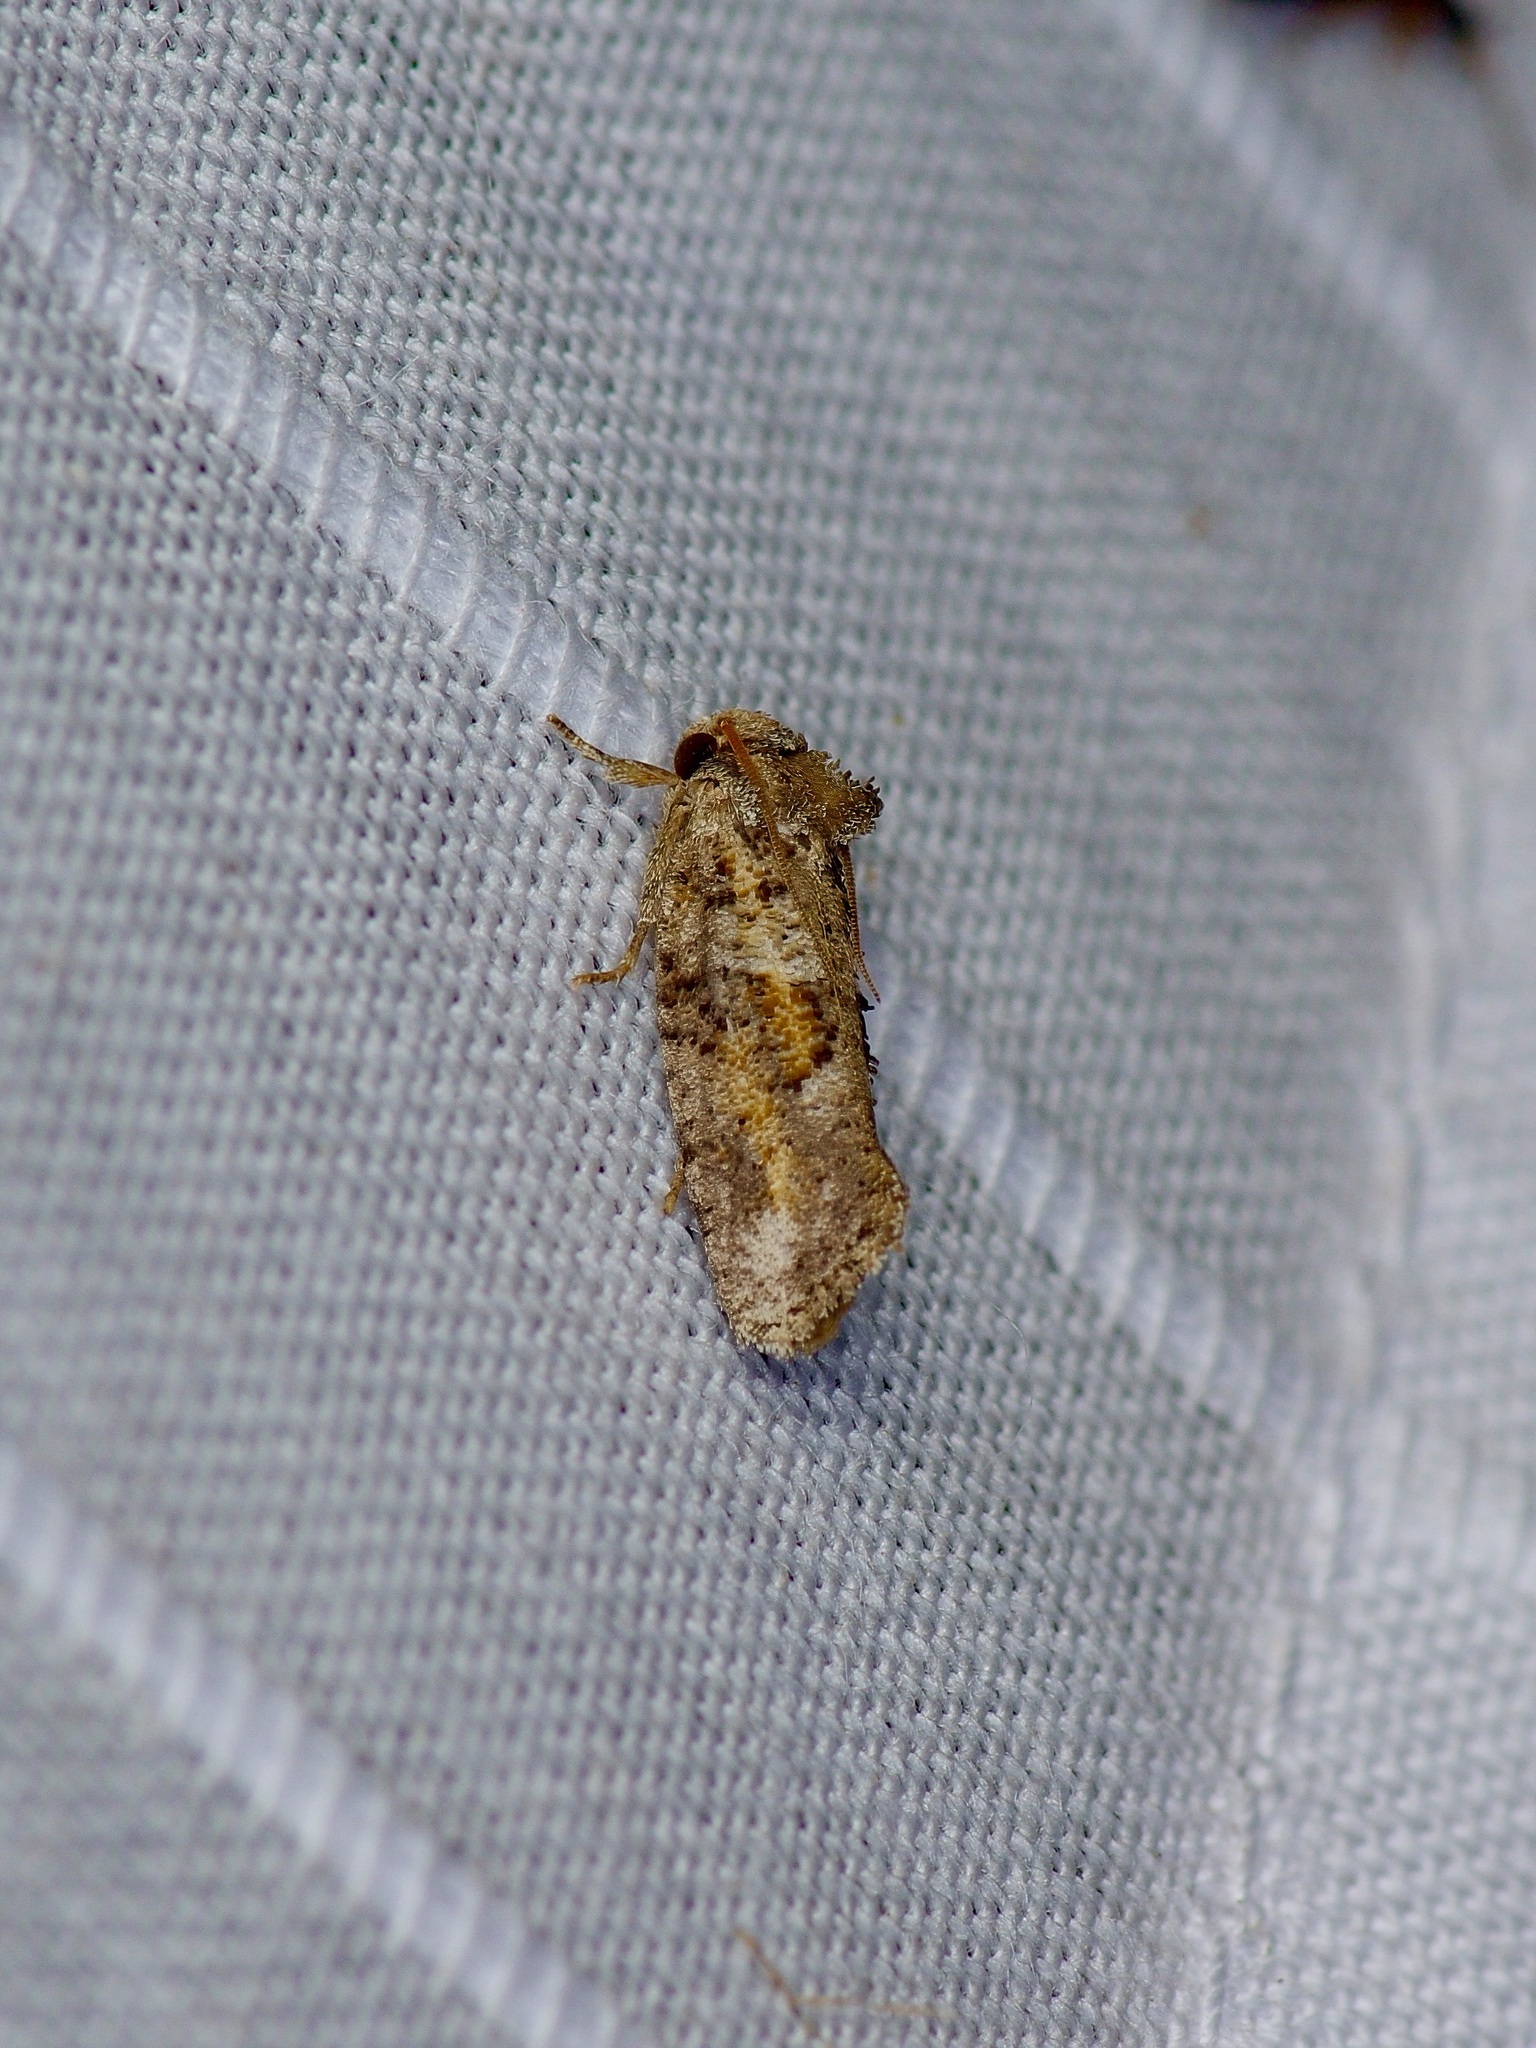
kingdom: Animalia
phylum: Arthropoda
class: Insecta
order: Lepidoptera
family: Tineidae
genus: Acrolophus
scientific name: Acrolophus piger
